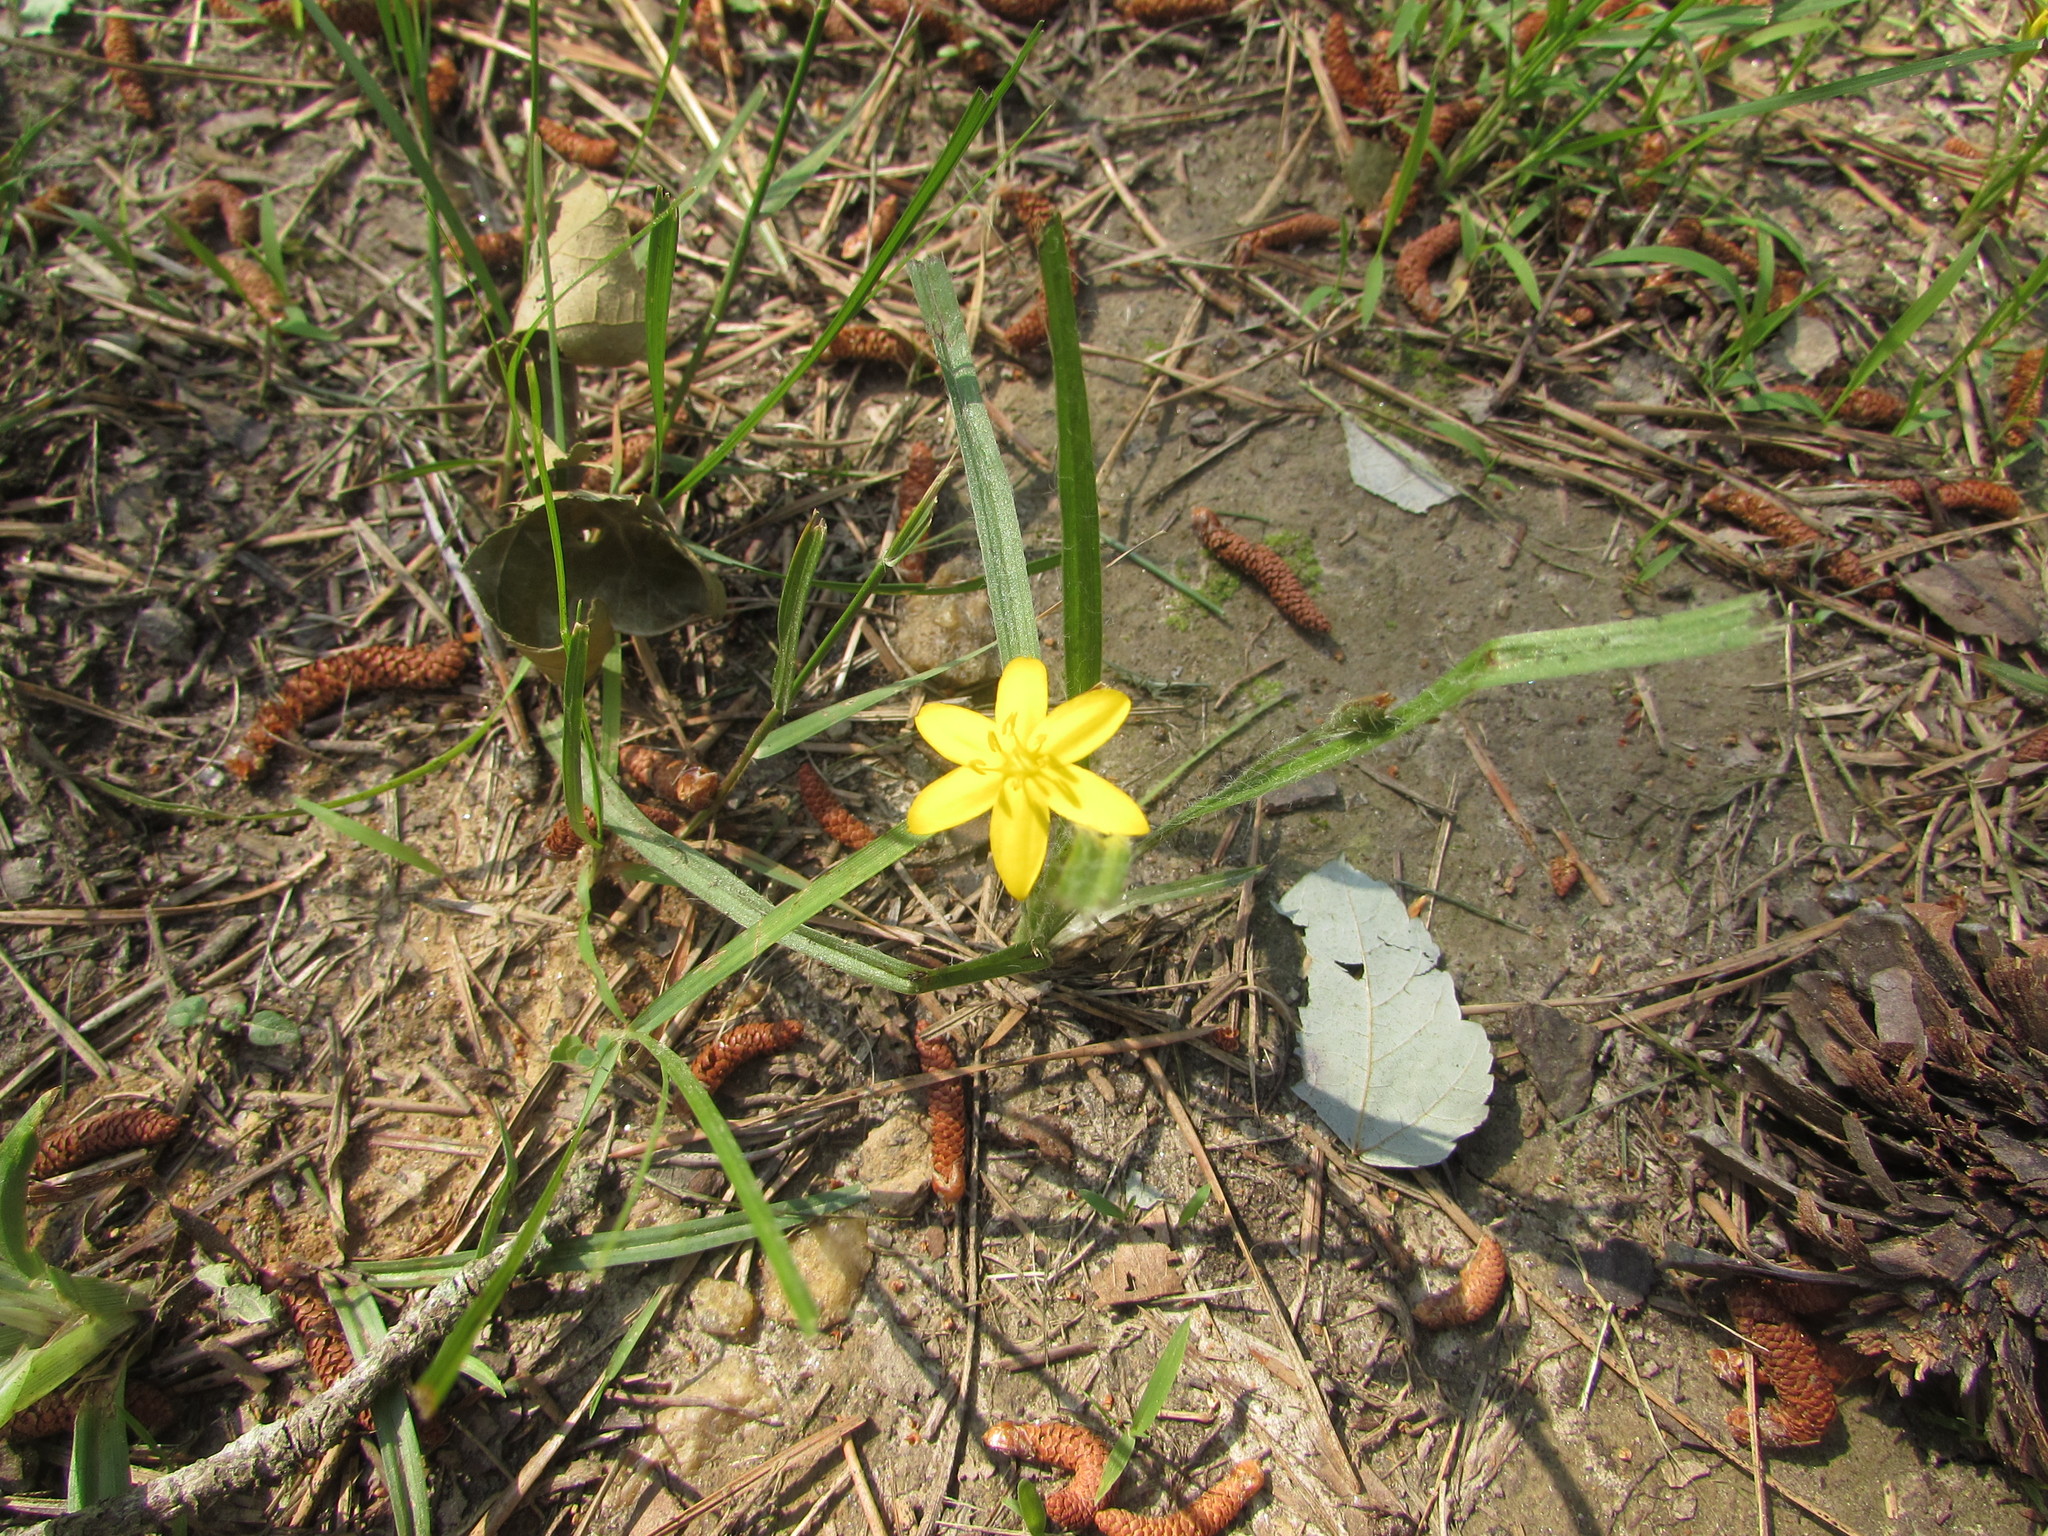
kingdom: Plantae
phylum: Tracheophyta
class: Liliopsida
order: Asparagales
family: Hypoxidaceae
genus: Hypoxis
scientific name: Hypoxis hirsuta
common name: Common goldstar
